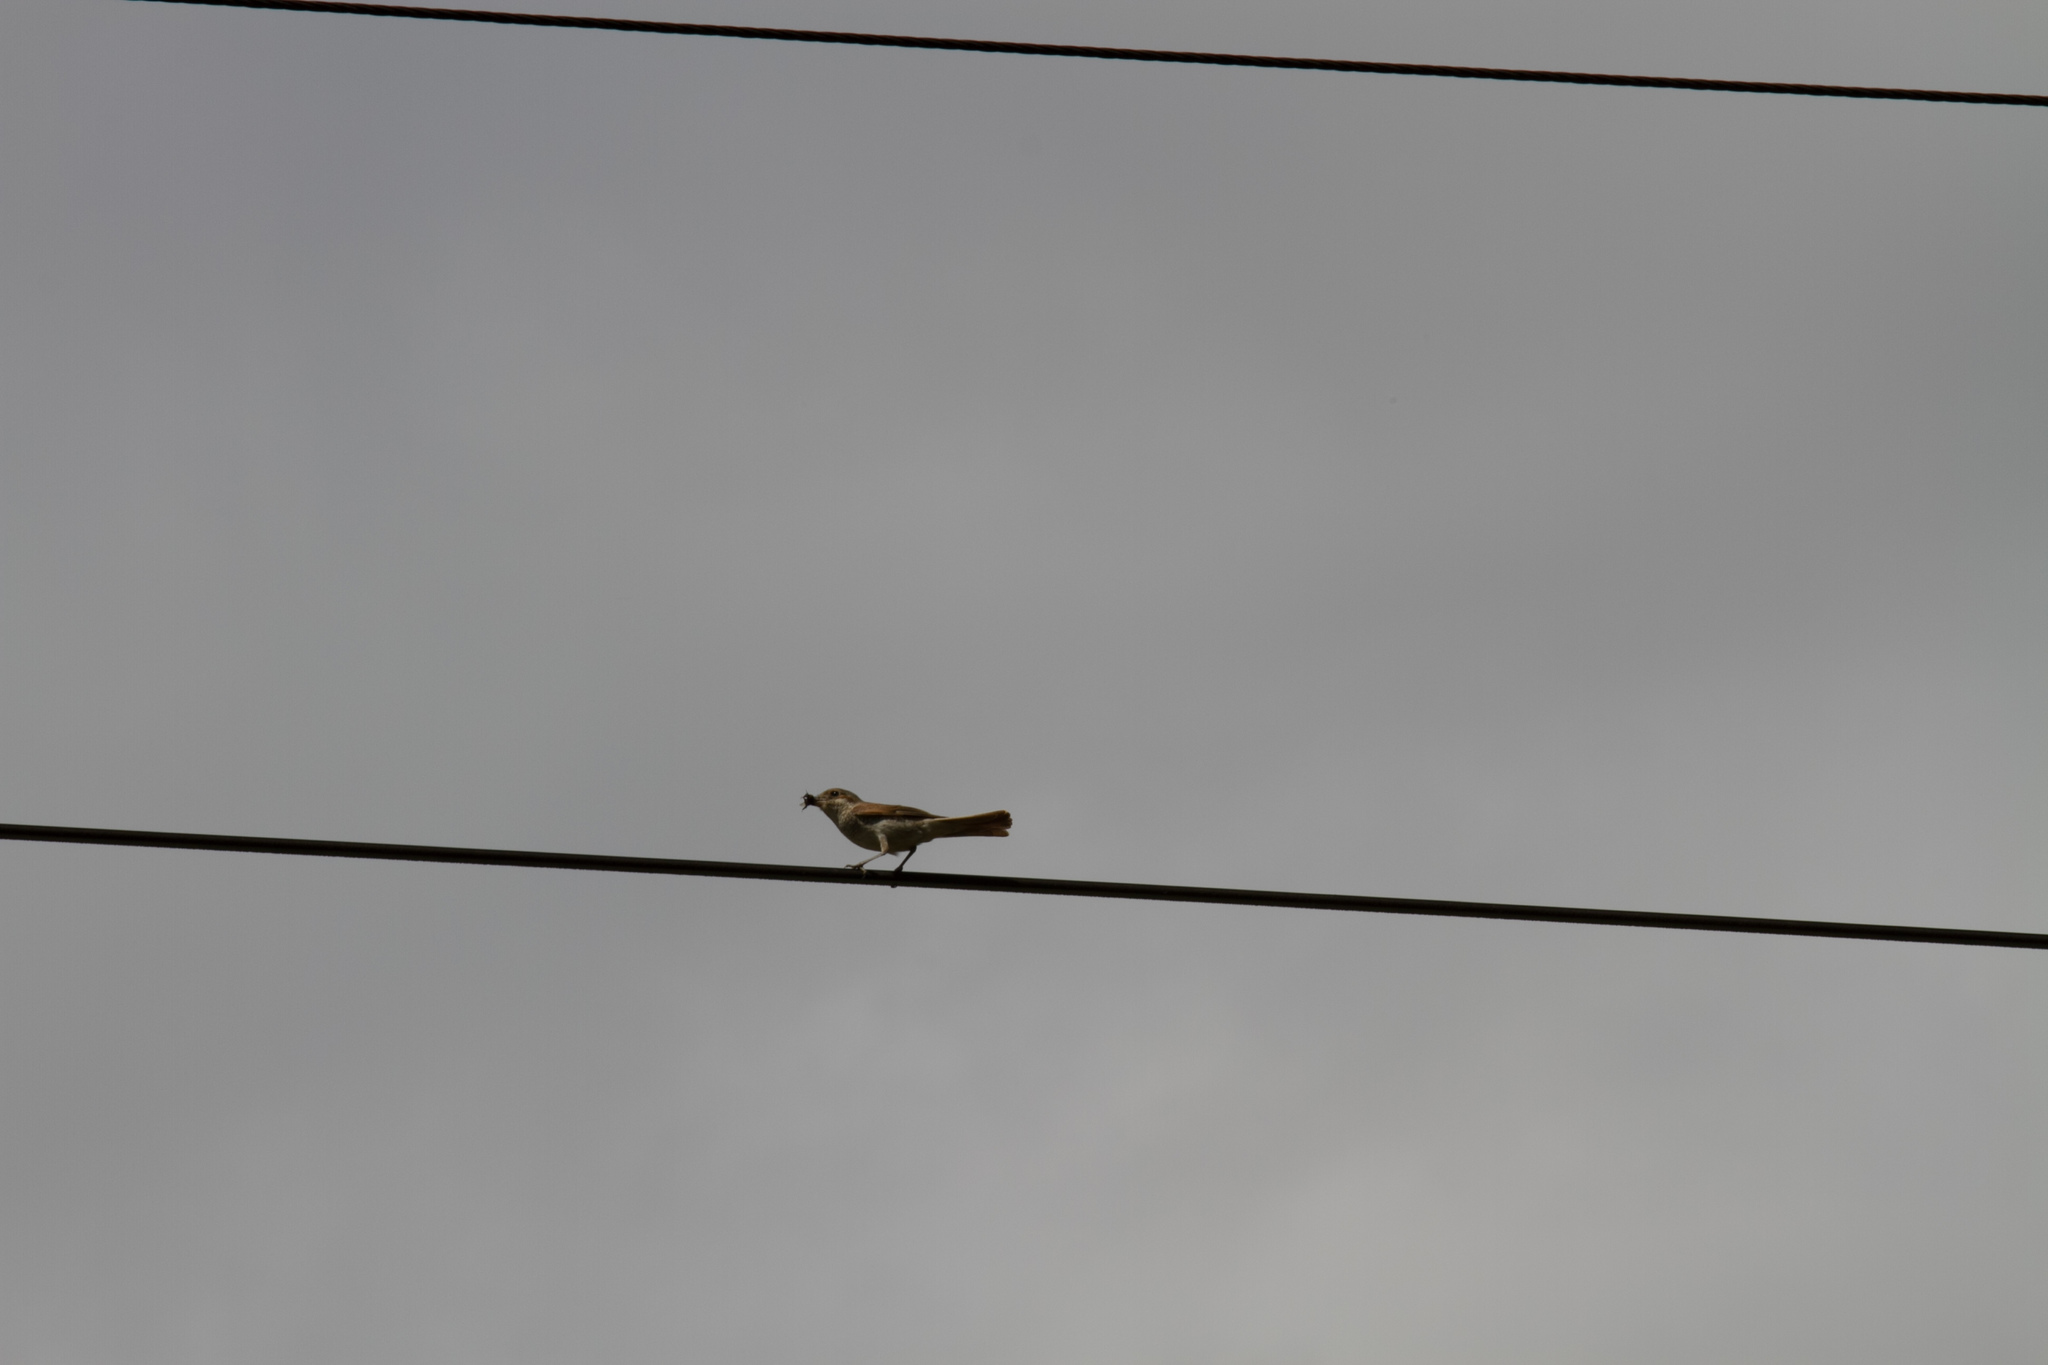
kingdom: Animalia
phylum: Chordata
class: Aves
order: Passeriformes
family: Laniidae
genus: Lanius
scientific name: Lanius collurio
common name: Red-backed shrike
